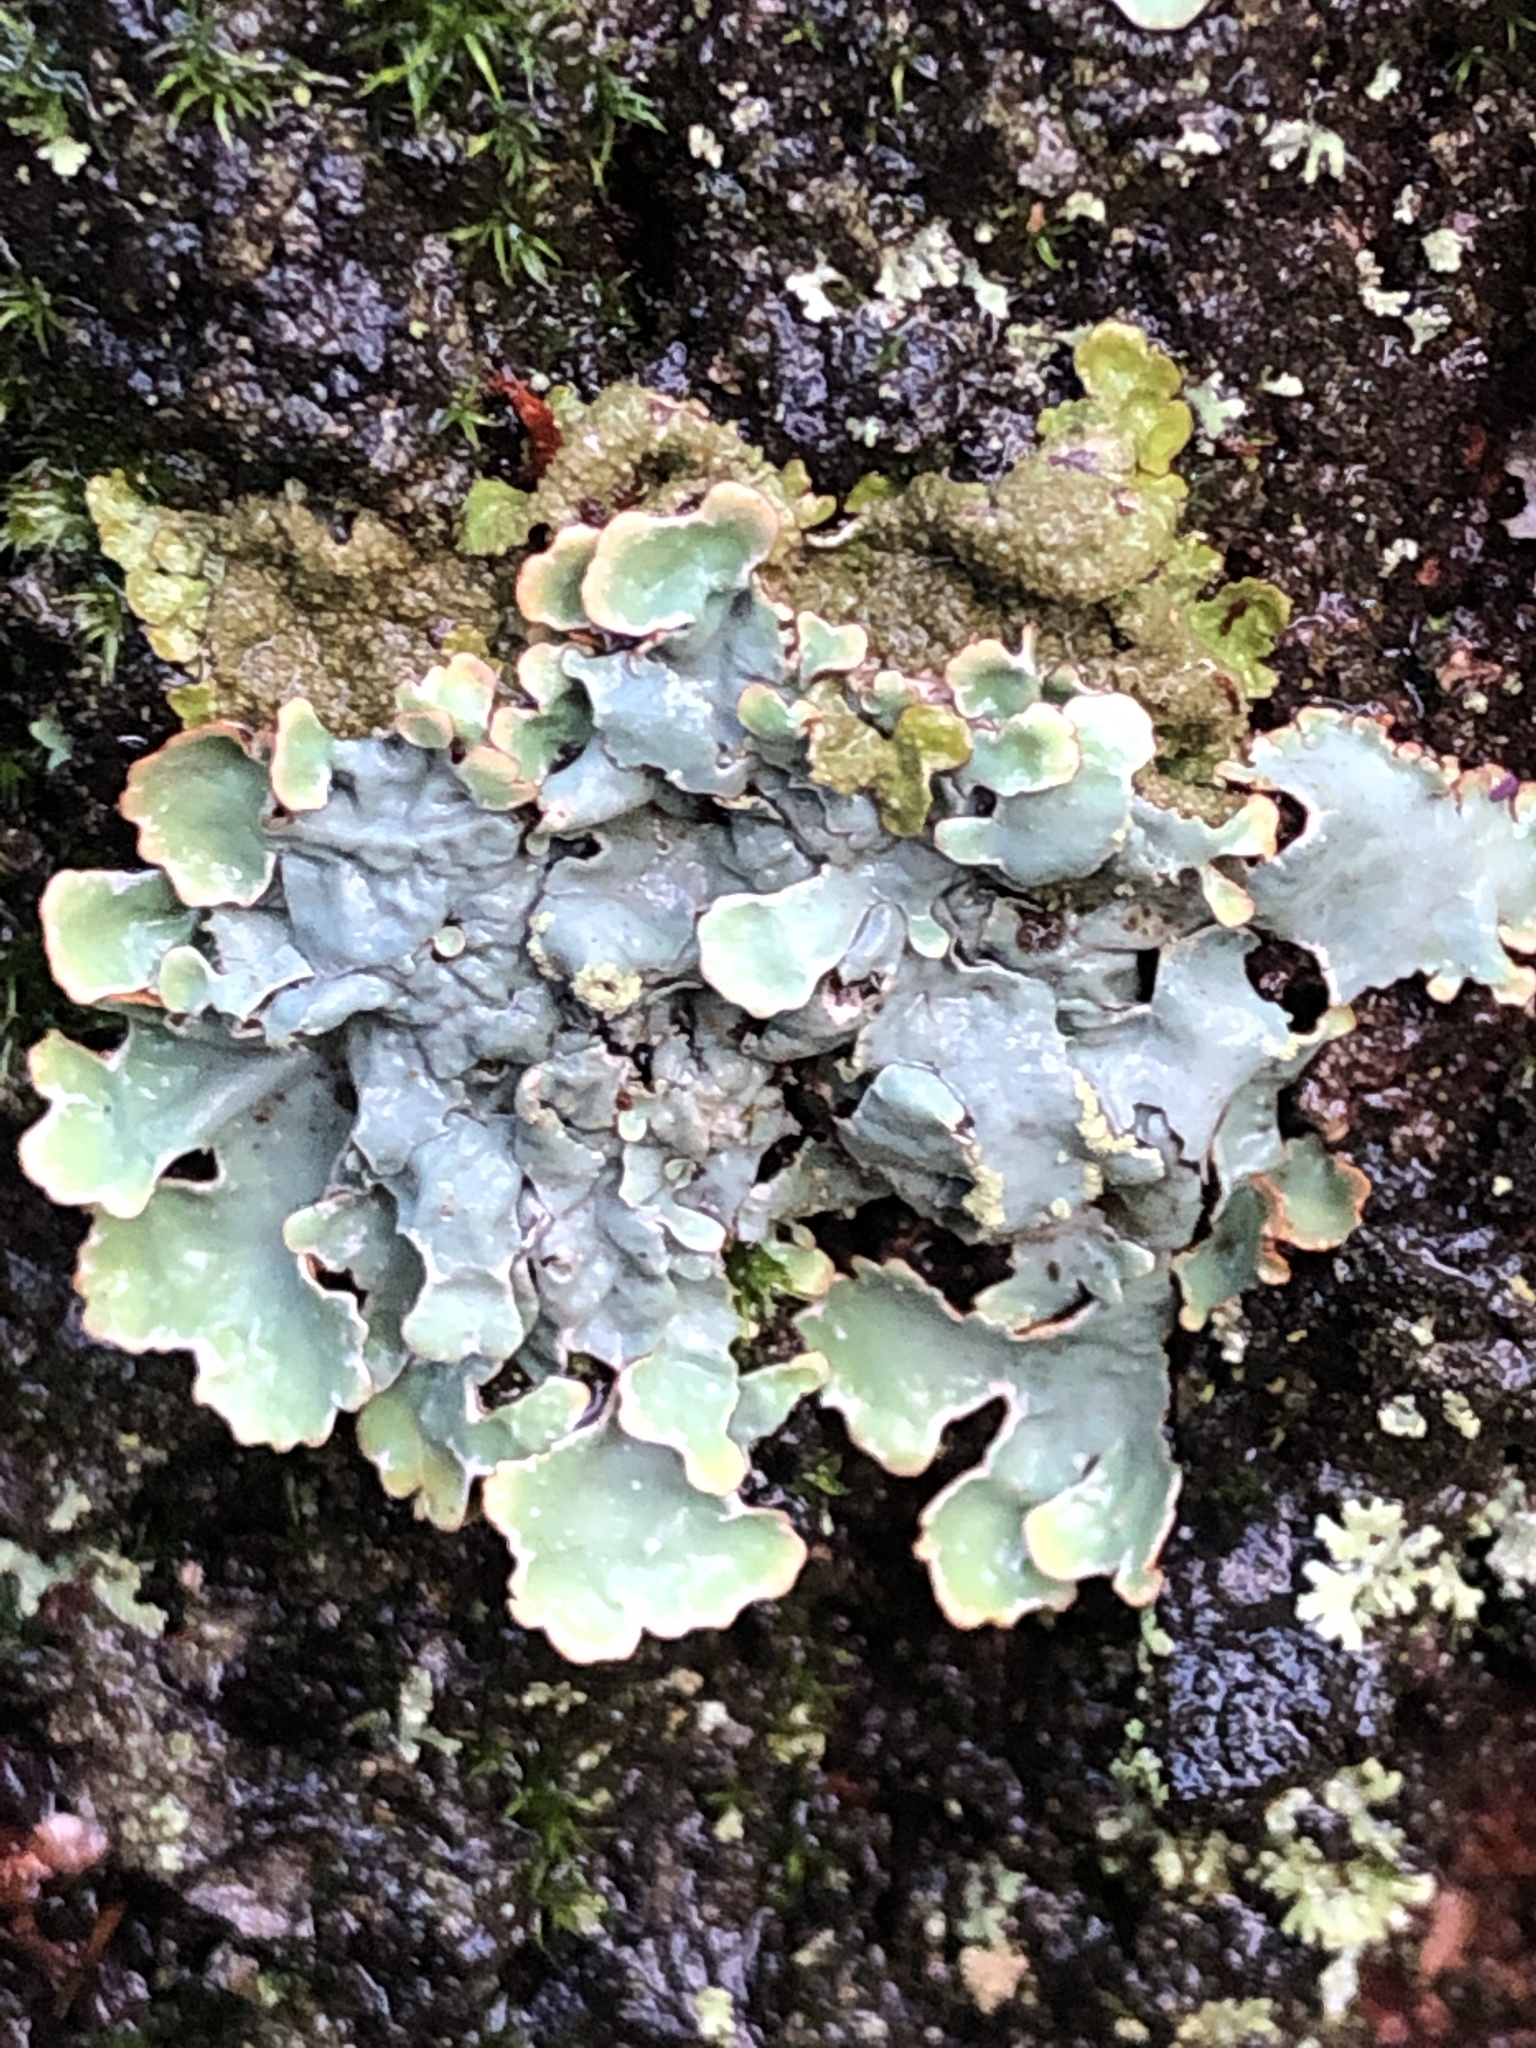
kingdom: Fungi
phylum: Ascomycota
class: Lecanoromycetes
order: Lecanorales
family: Parmeliaceae
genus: Parmelia
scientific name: Parmelia sulcata
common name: Netted shield lichen
